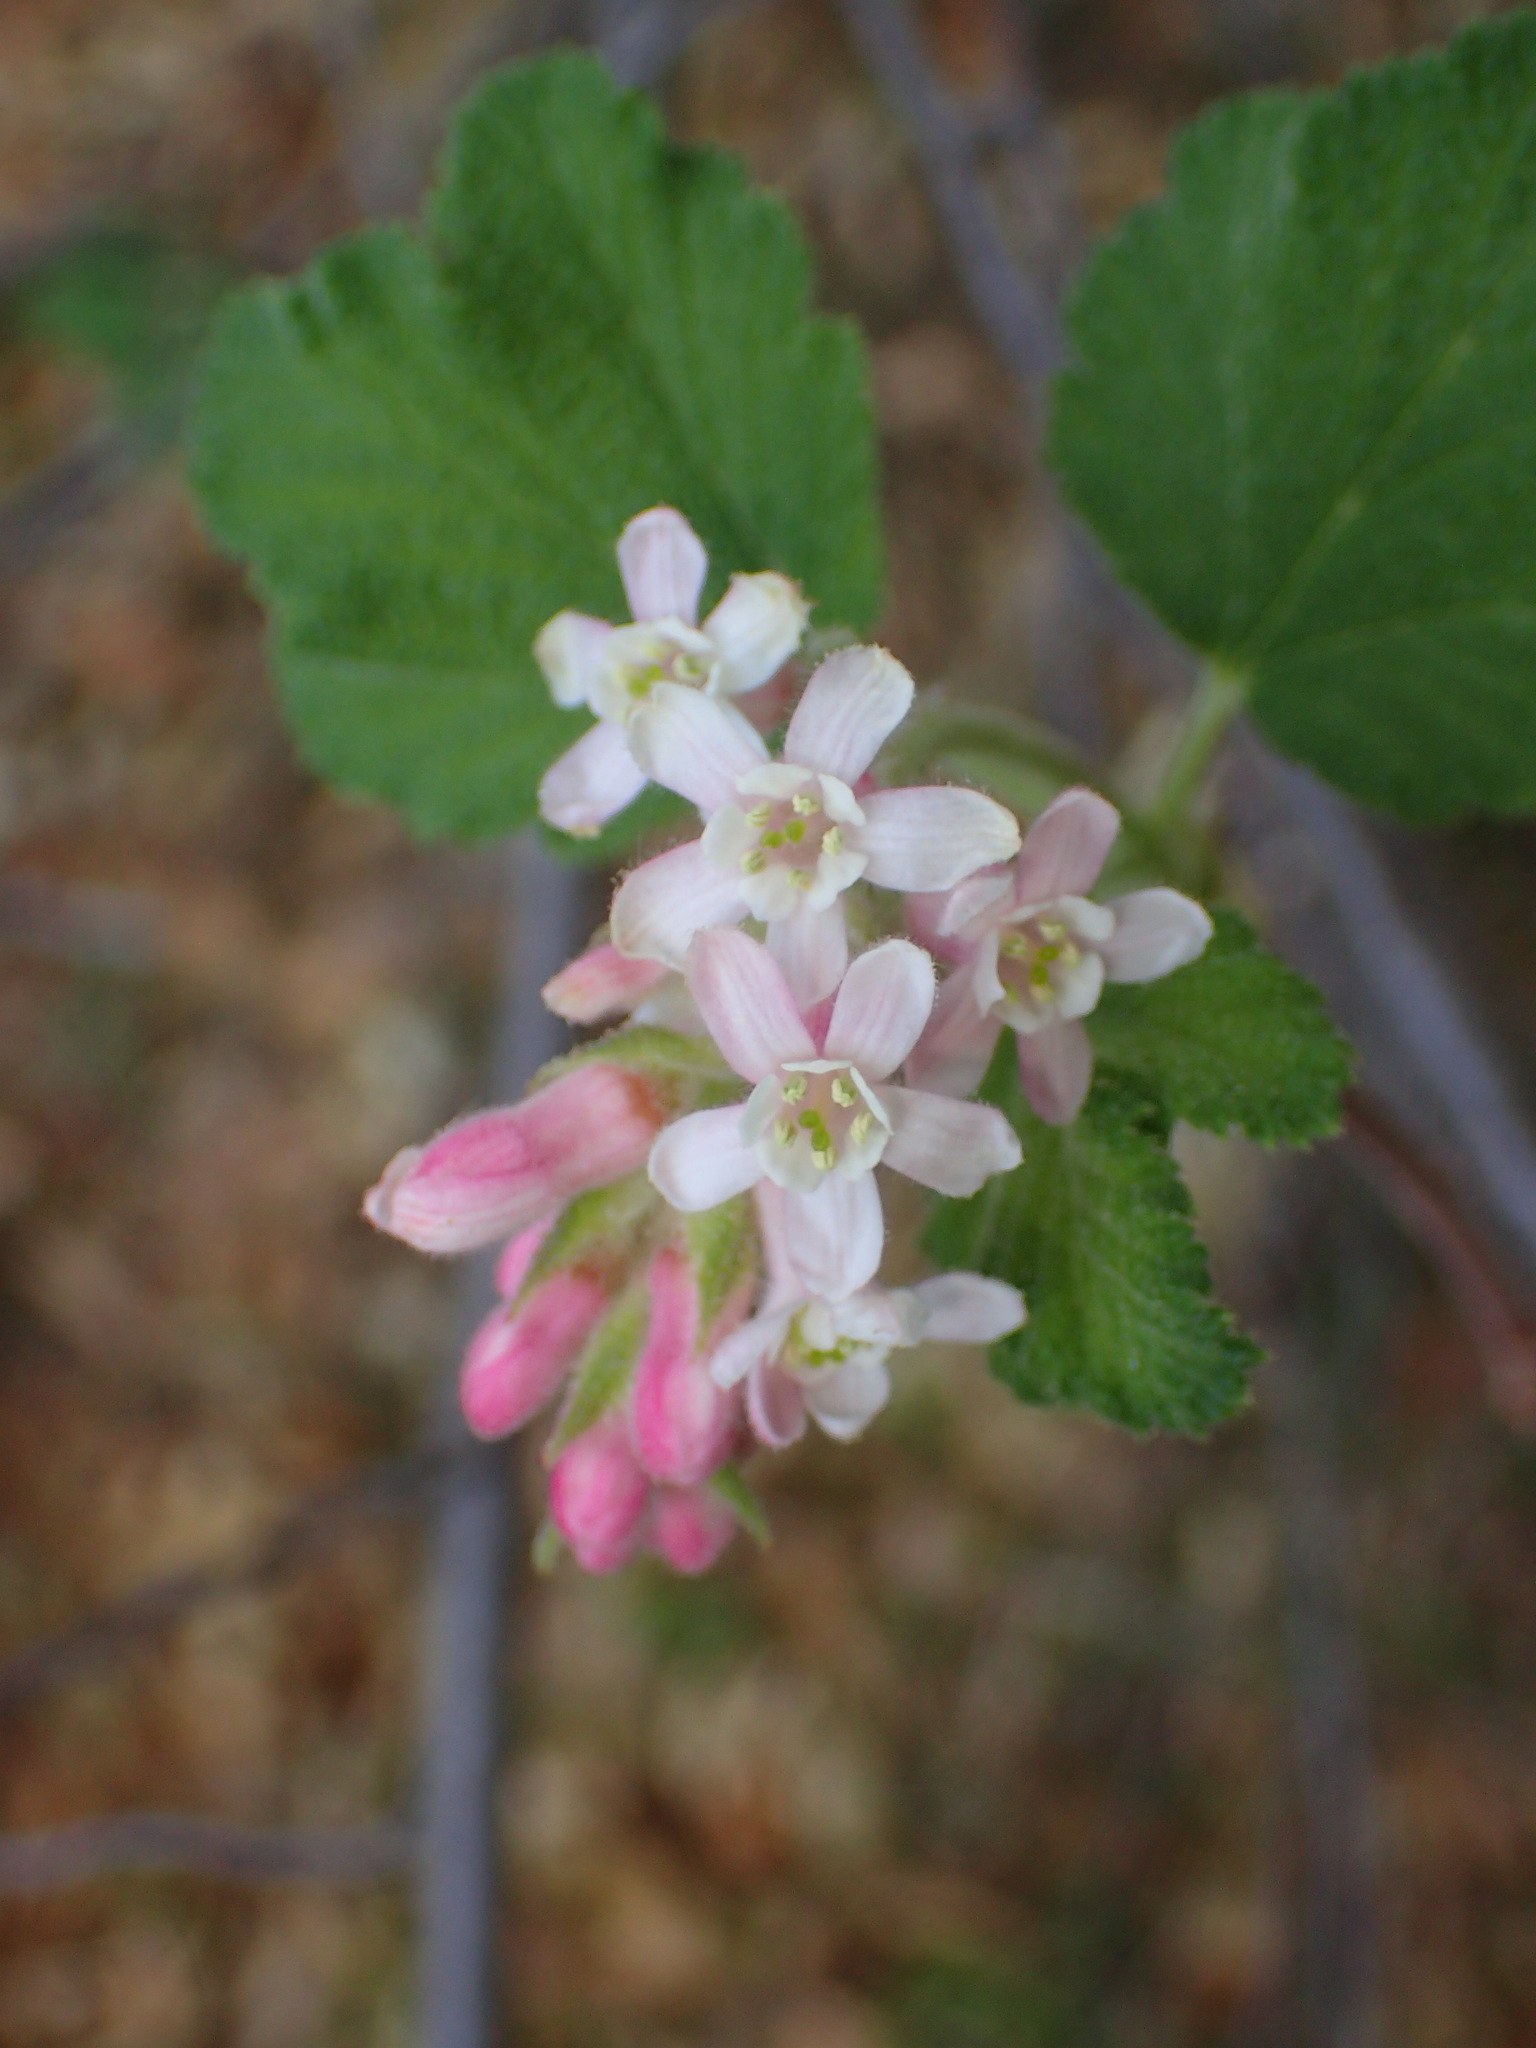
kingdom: Plantae
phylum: Tracheophyta
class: Magnoliopsida
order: Saxifragales
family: Grossulariaceae
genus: Ribes
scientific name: Ribes malvaceum
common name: Chaparral currant
